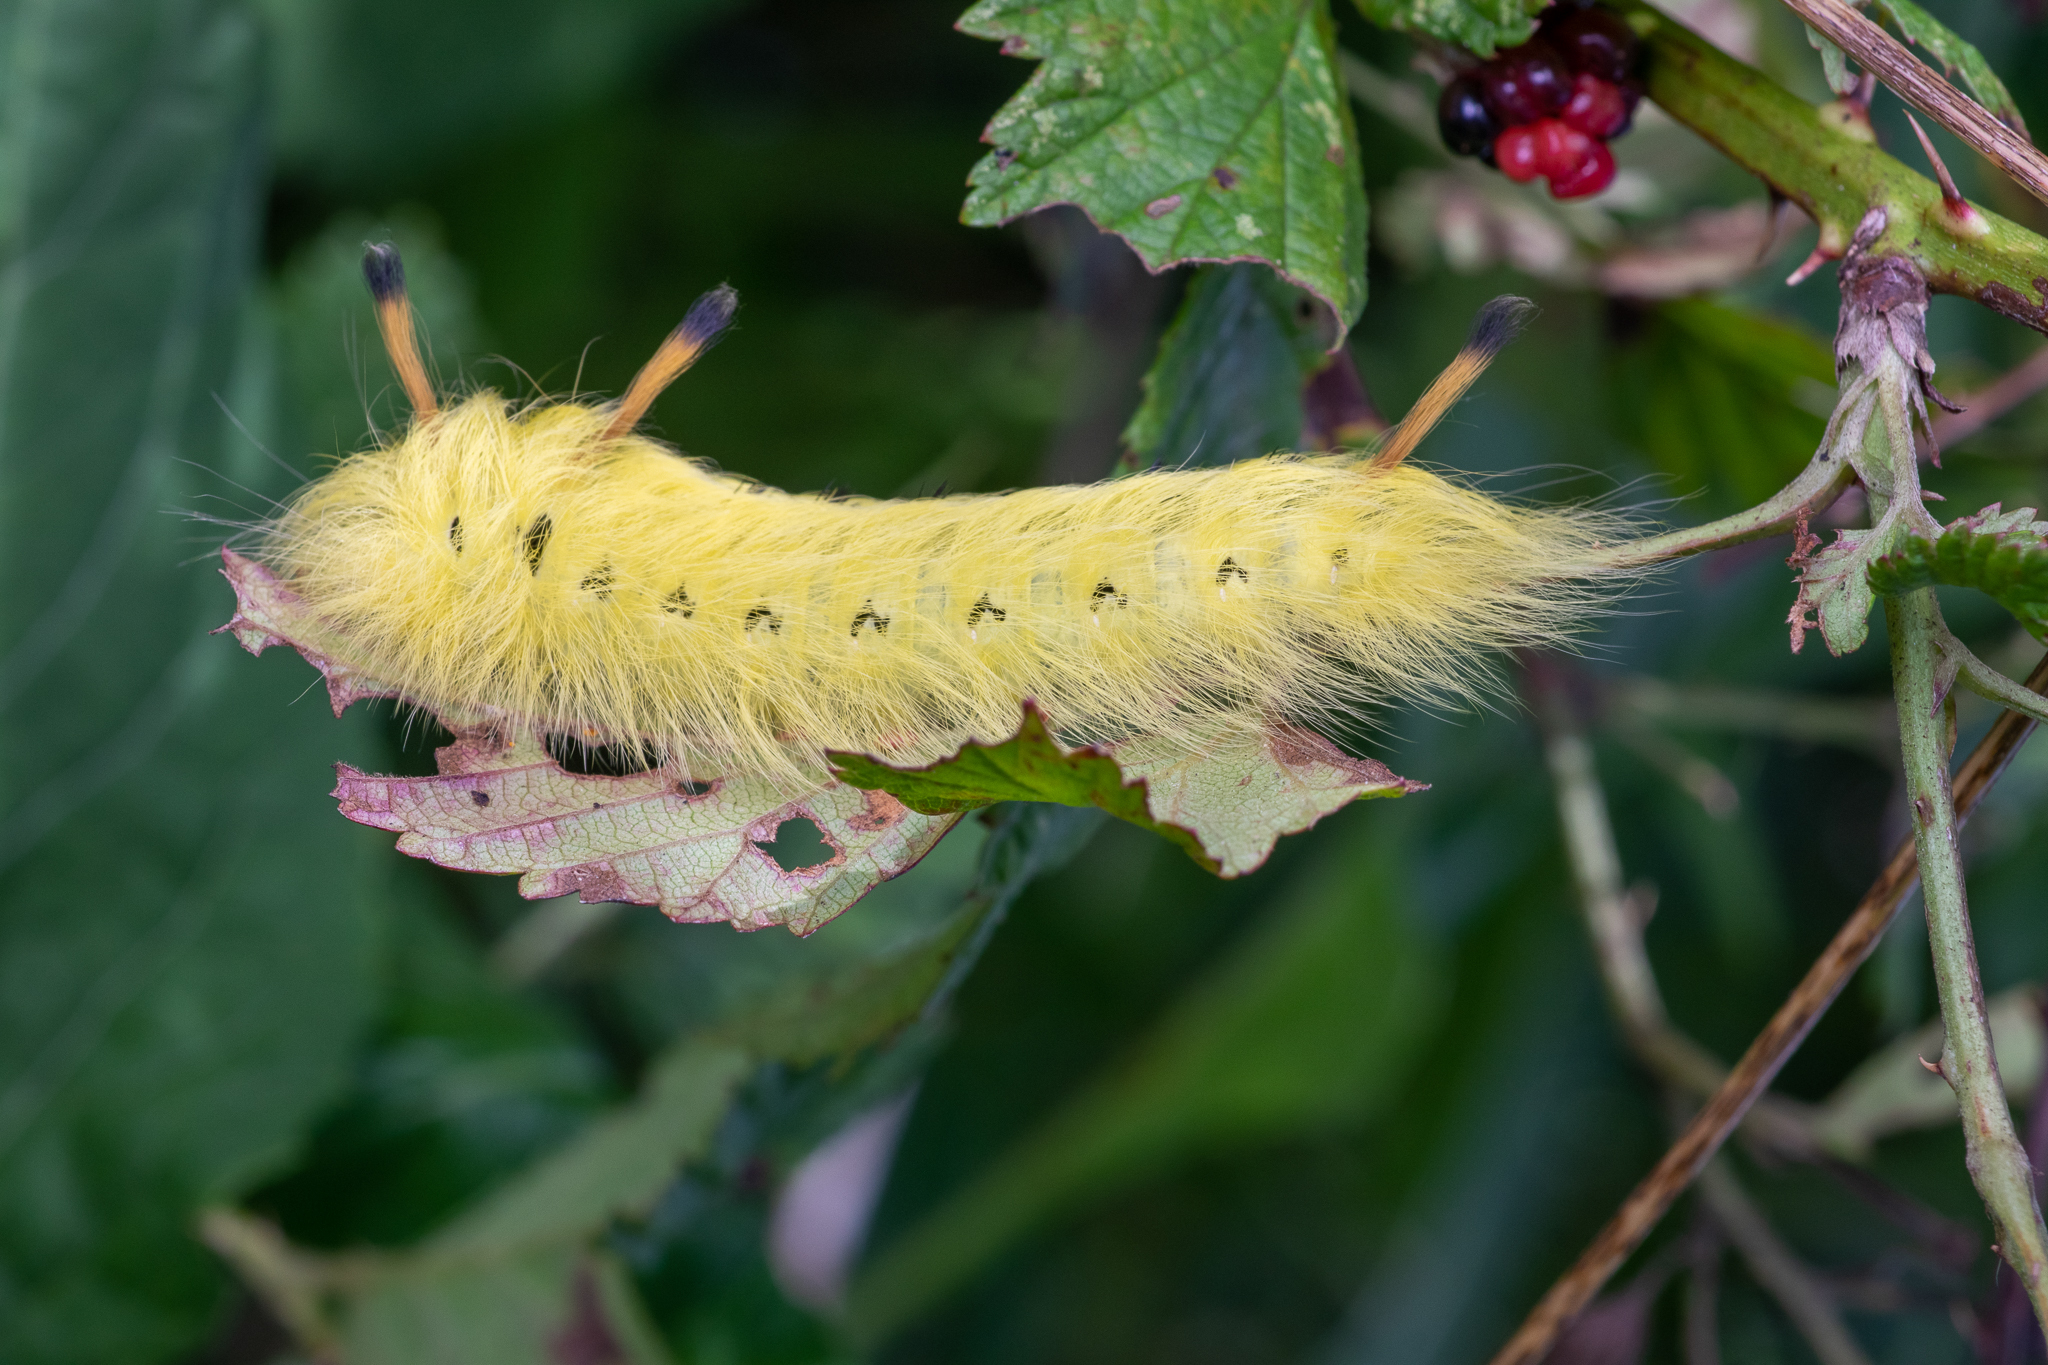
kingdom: Animalia
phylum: Arthropoda
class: Insecta
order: Lepidoptera
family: Apatelodidae
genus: Hygrochroa
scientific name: Hygrochroa Apatelodes torrefacta
